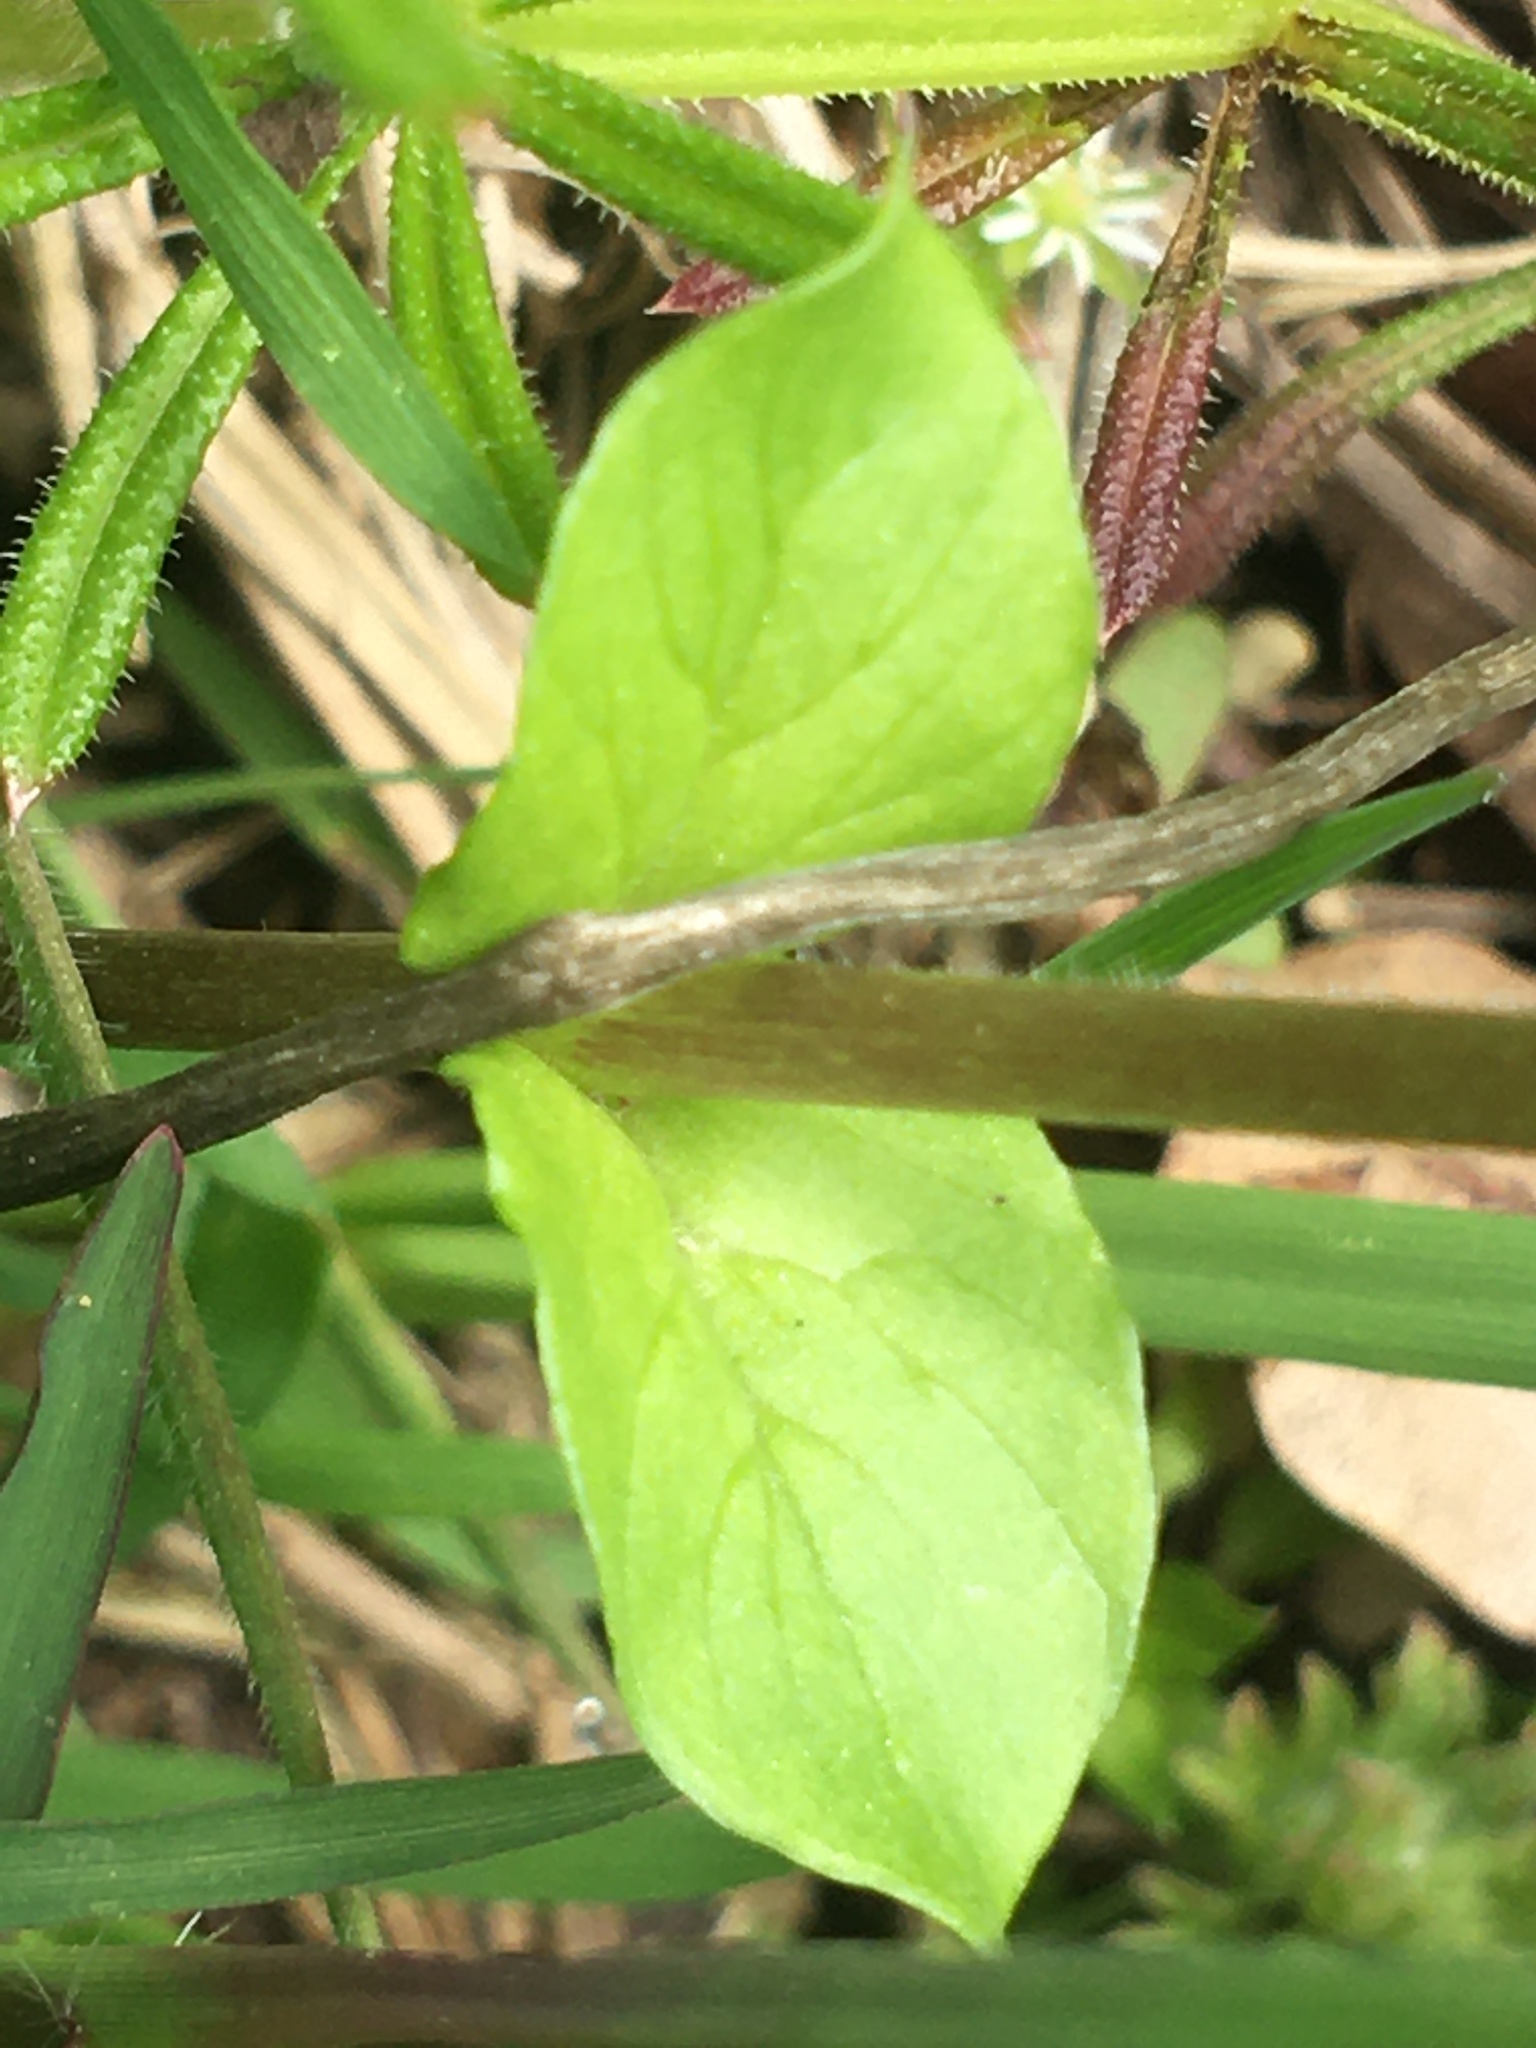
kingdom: Plantae
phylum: Tracheophyta
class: Magnoliopsida
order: Caryophyllales
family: Caryophyllaceae
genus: Stellaria
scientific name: Stellaria media
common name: Common chickweed
